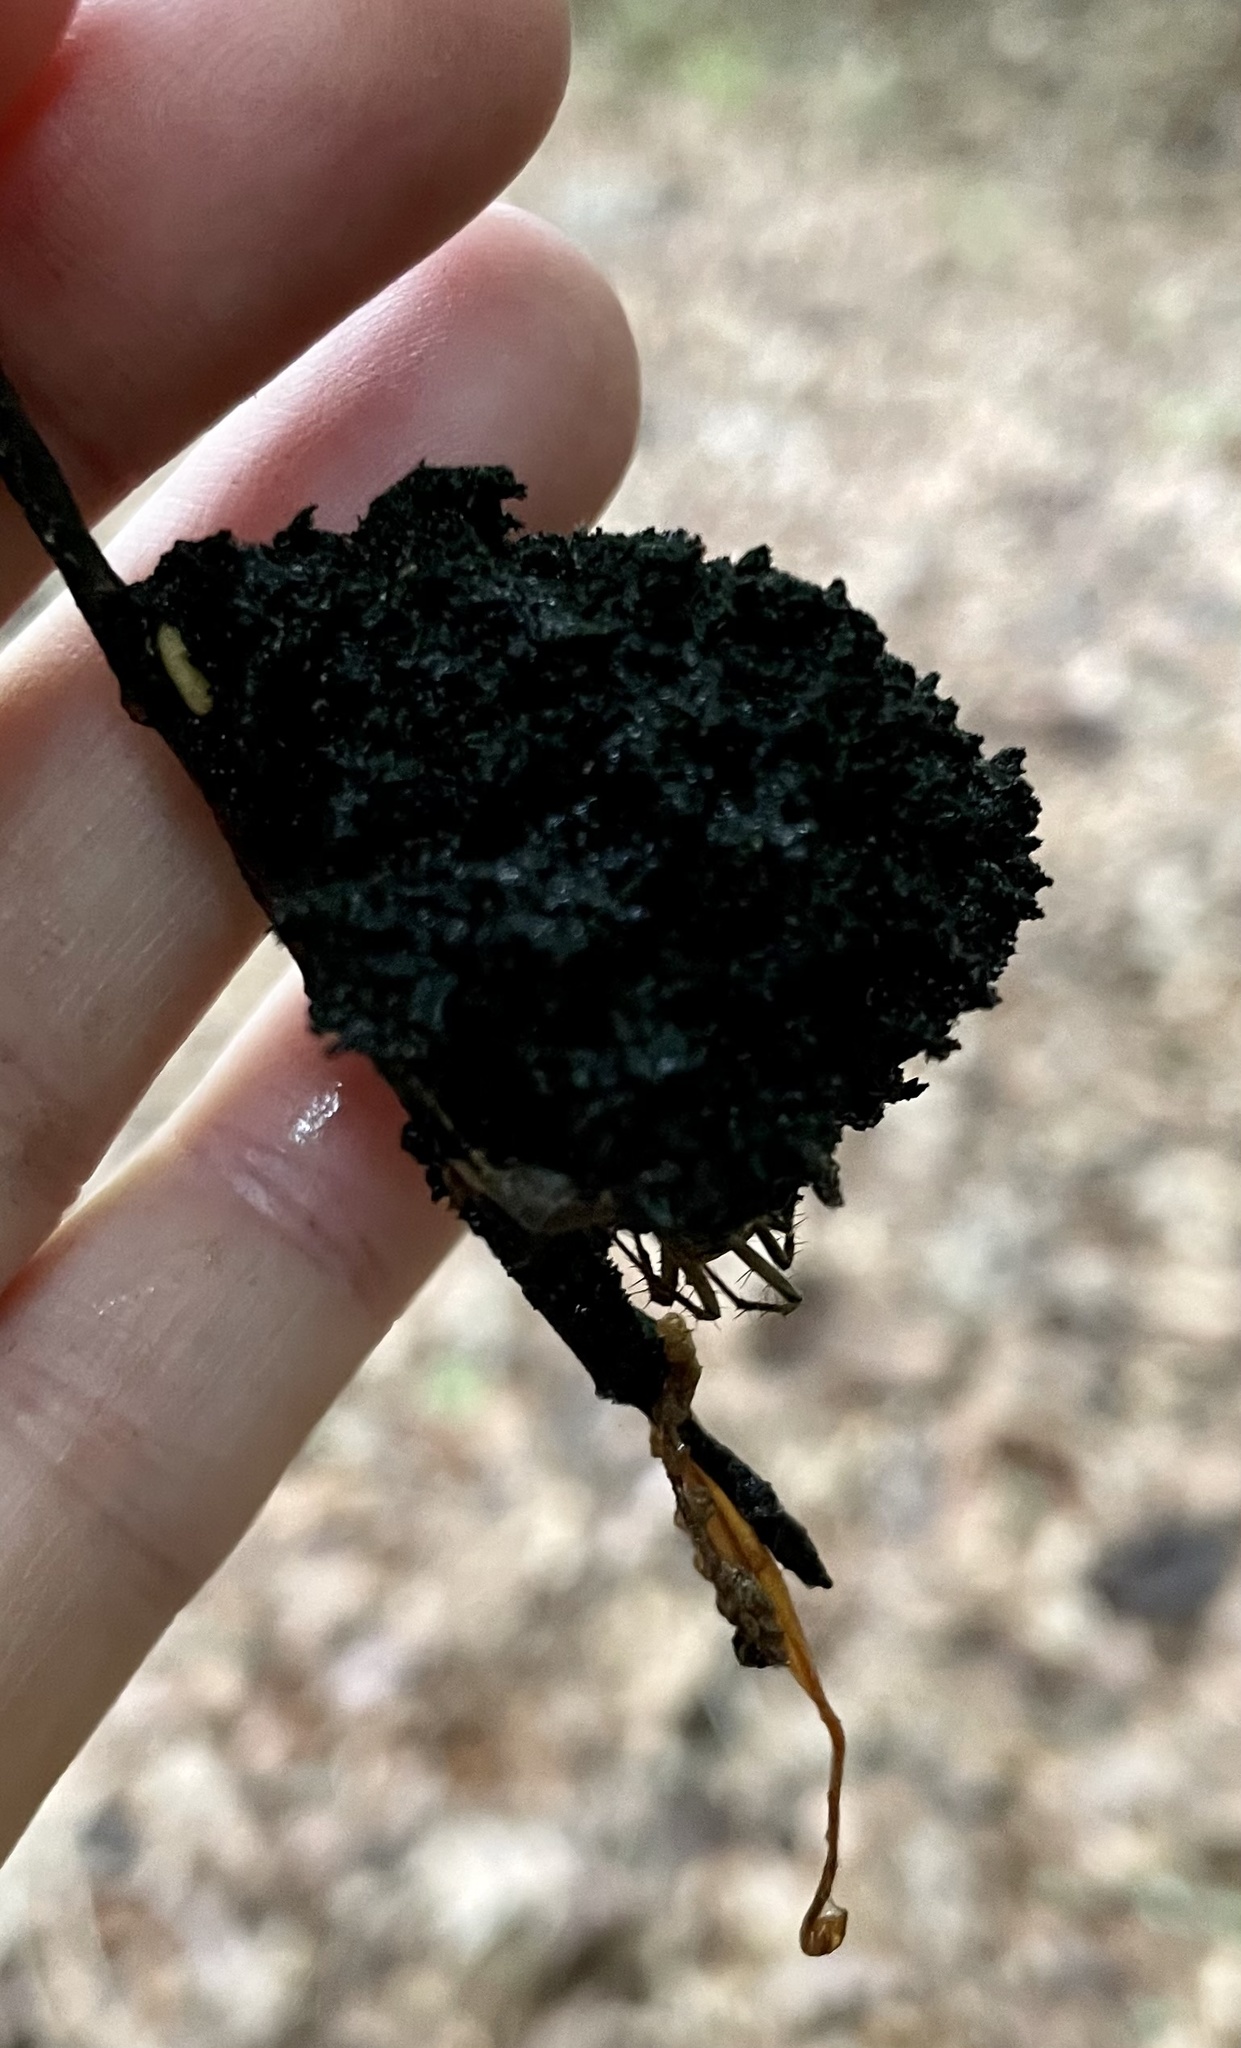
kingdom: Fungi
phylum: Ascomycota
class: Dothideomycetes
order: Capnodiales
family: Capnodiaceae
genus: Scorias
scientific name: Scorias spongiosa
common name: Black sooty mold
